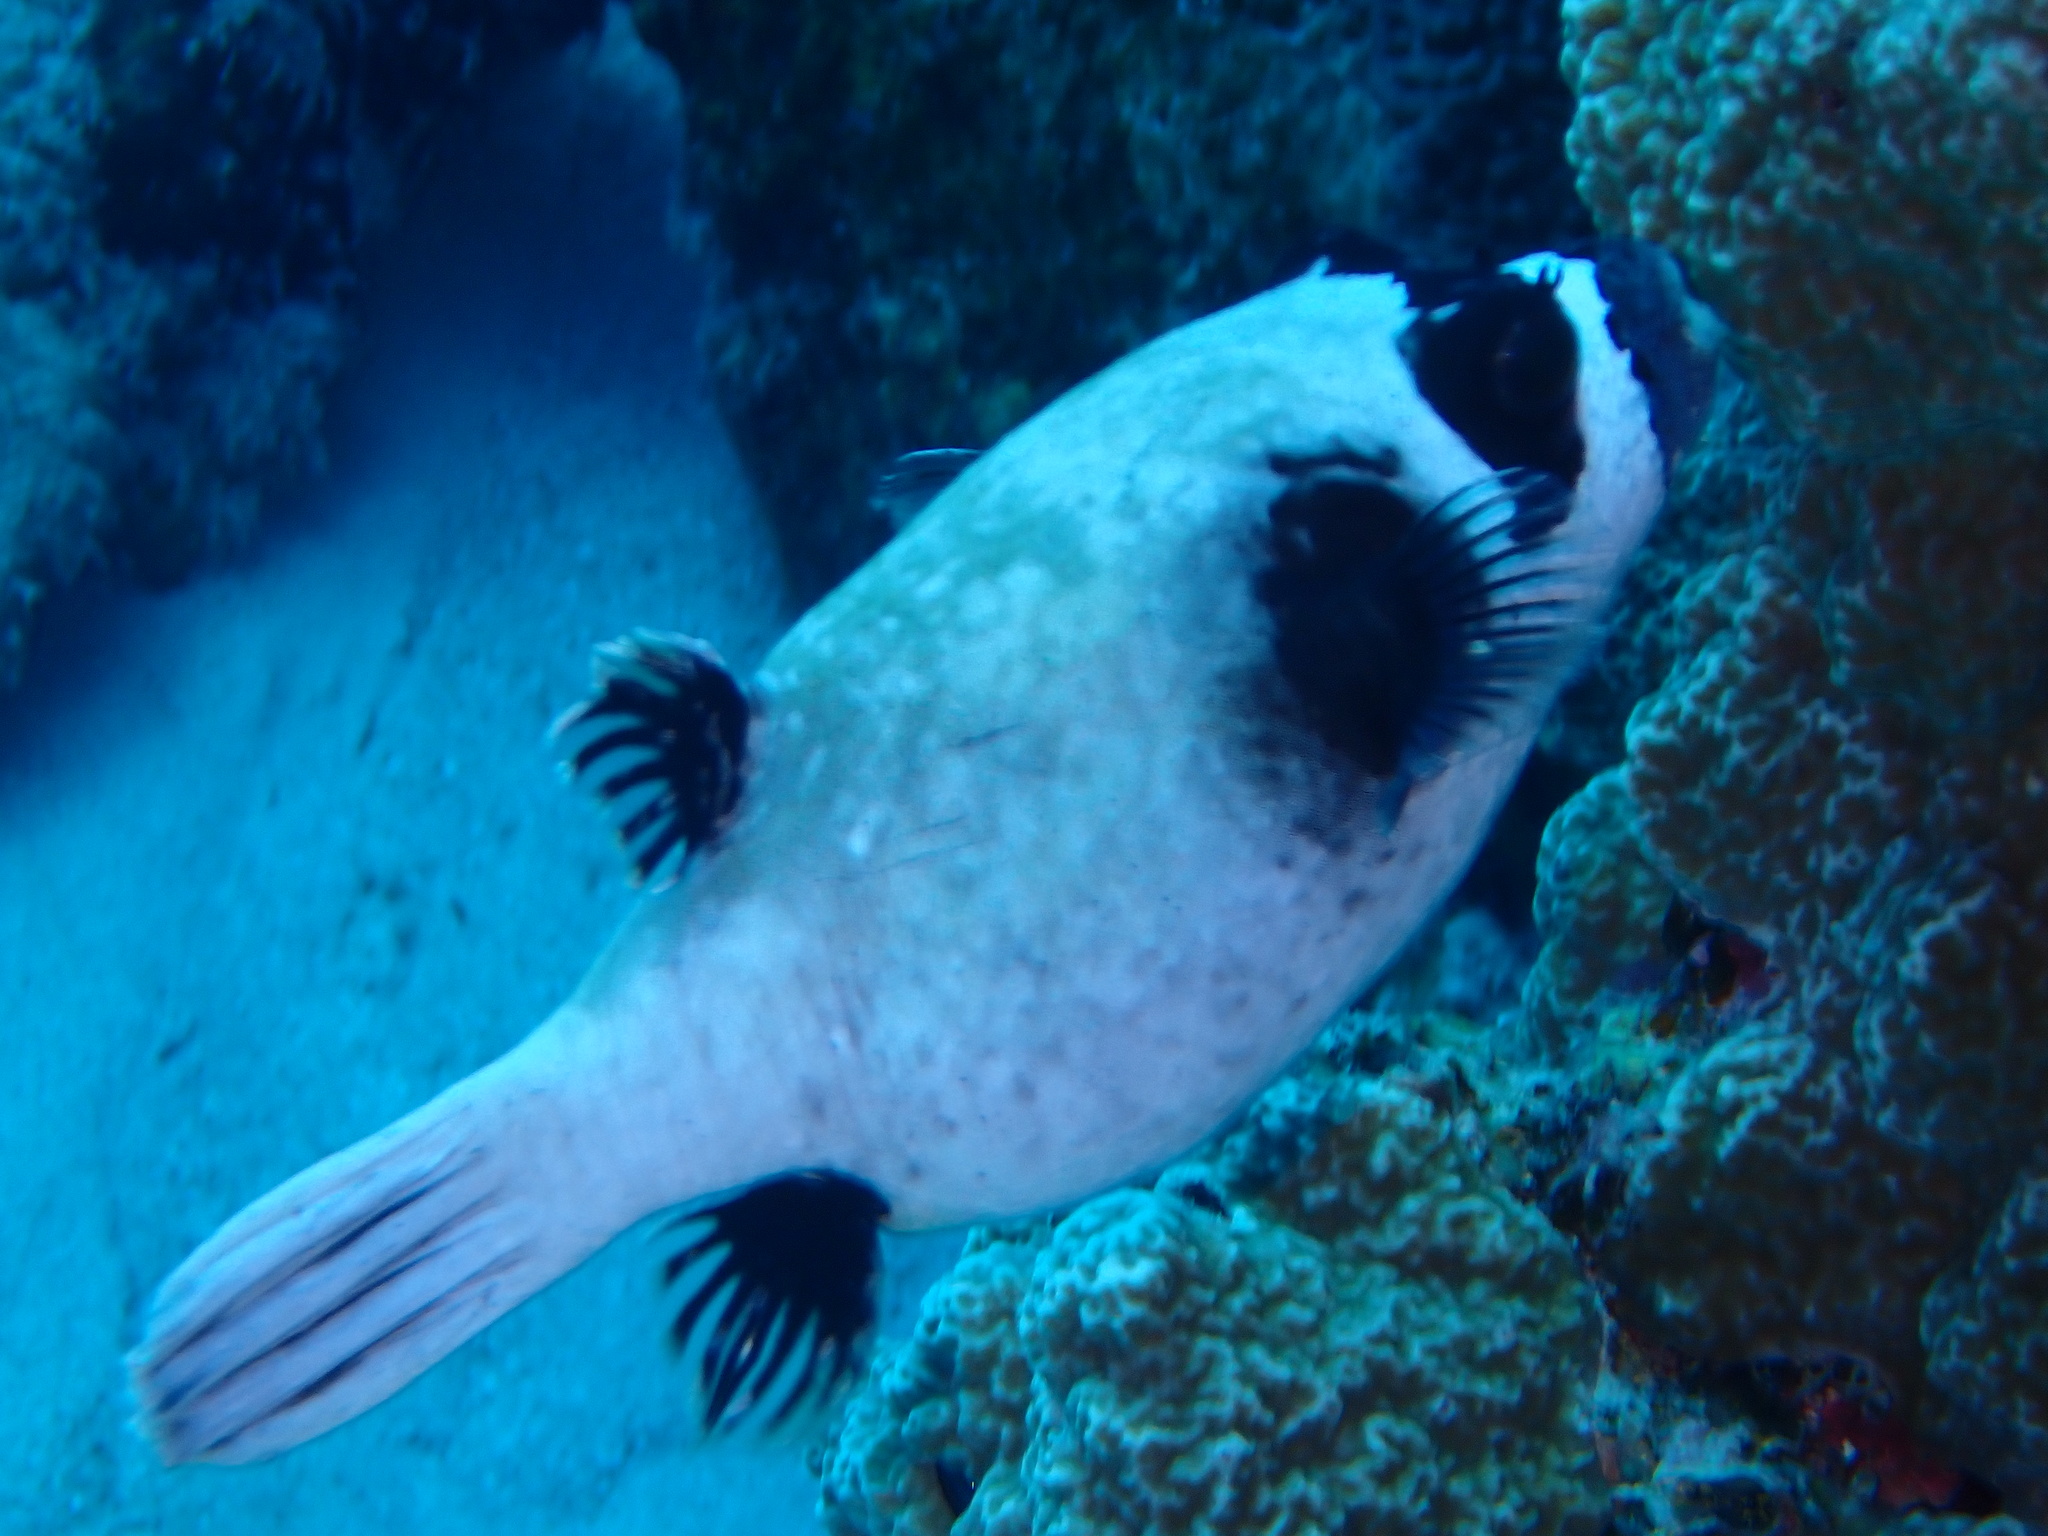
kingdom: Animalia
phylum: Chordata
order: Tetraodontiformes
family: Tetraodontidae
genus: Arothron
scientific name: Arothron diadematus
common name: Masked puffer
